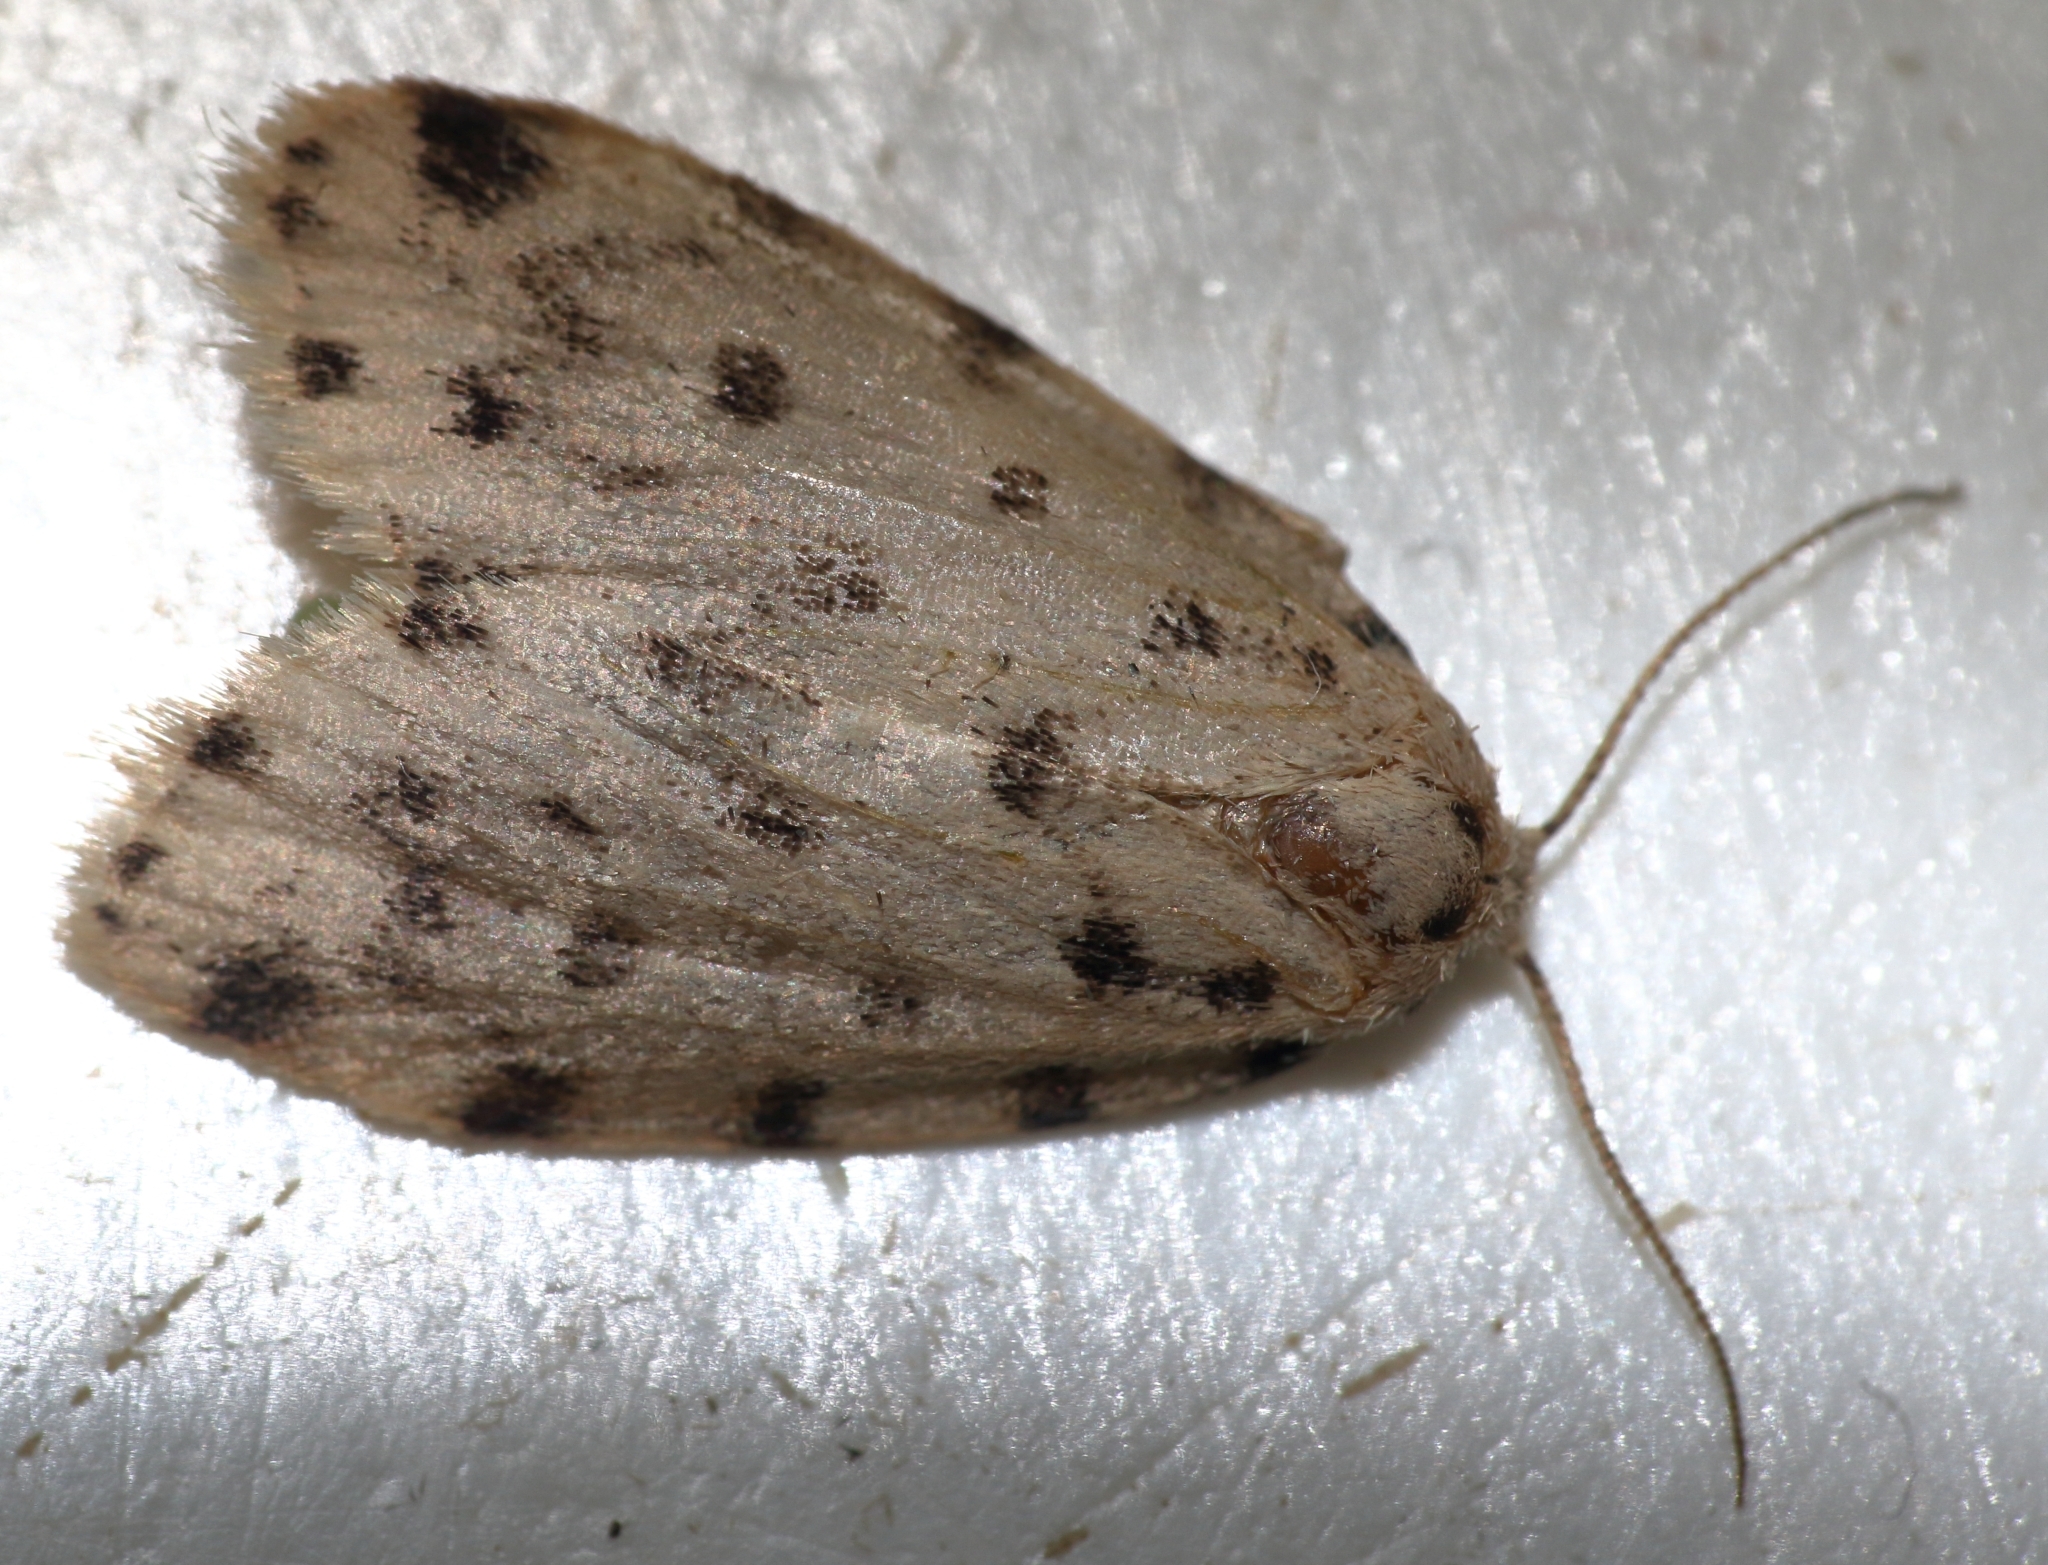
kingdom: Animalia
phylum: Arthropoda
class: Insecta
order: Lepidoptera
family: Erebidae
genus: Siccia
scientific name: Siccia caffra
